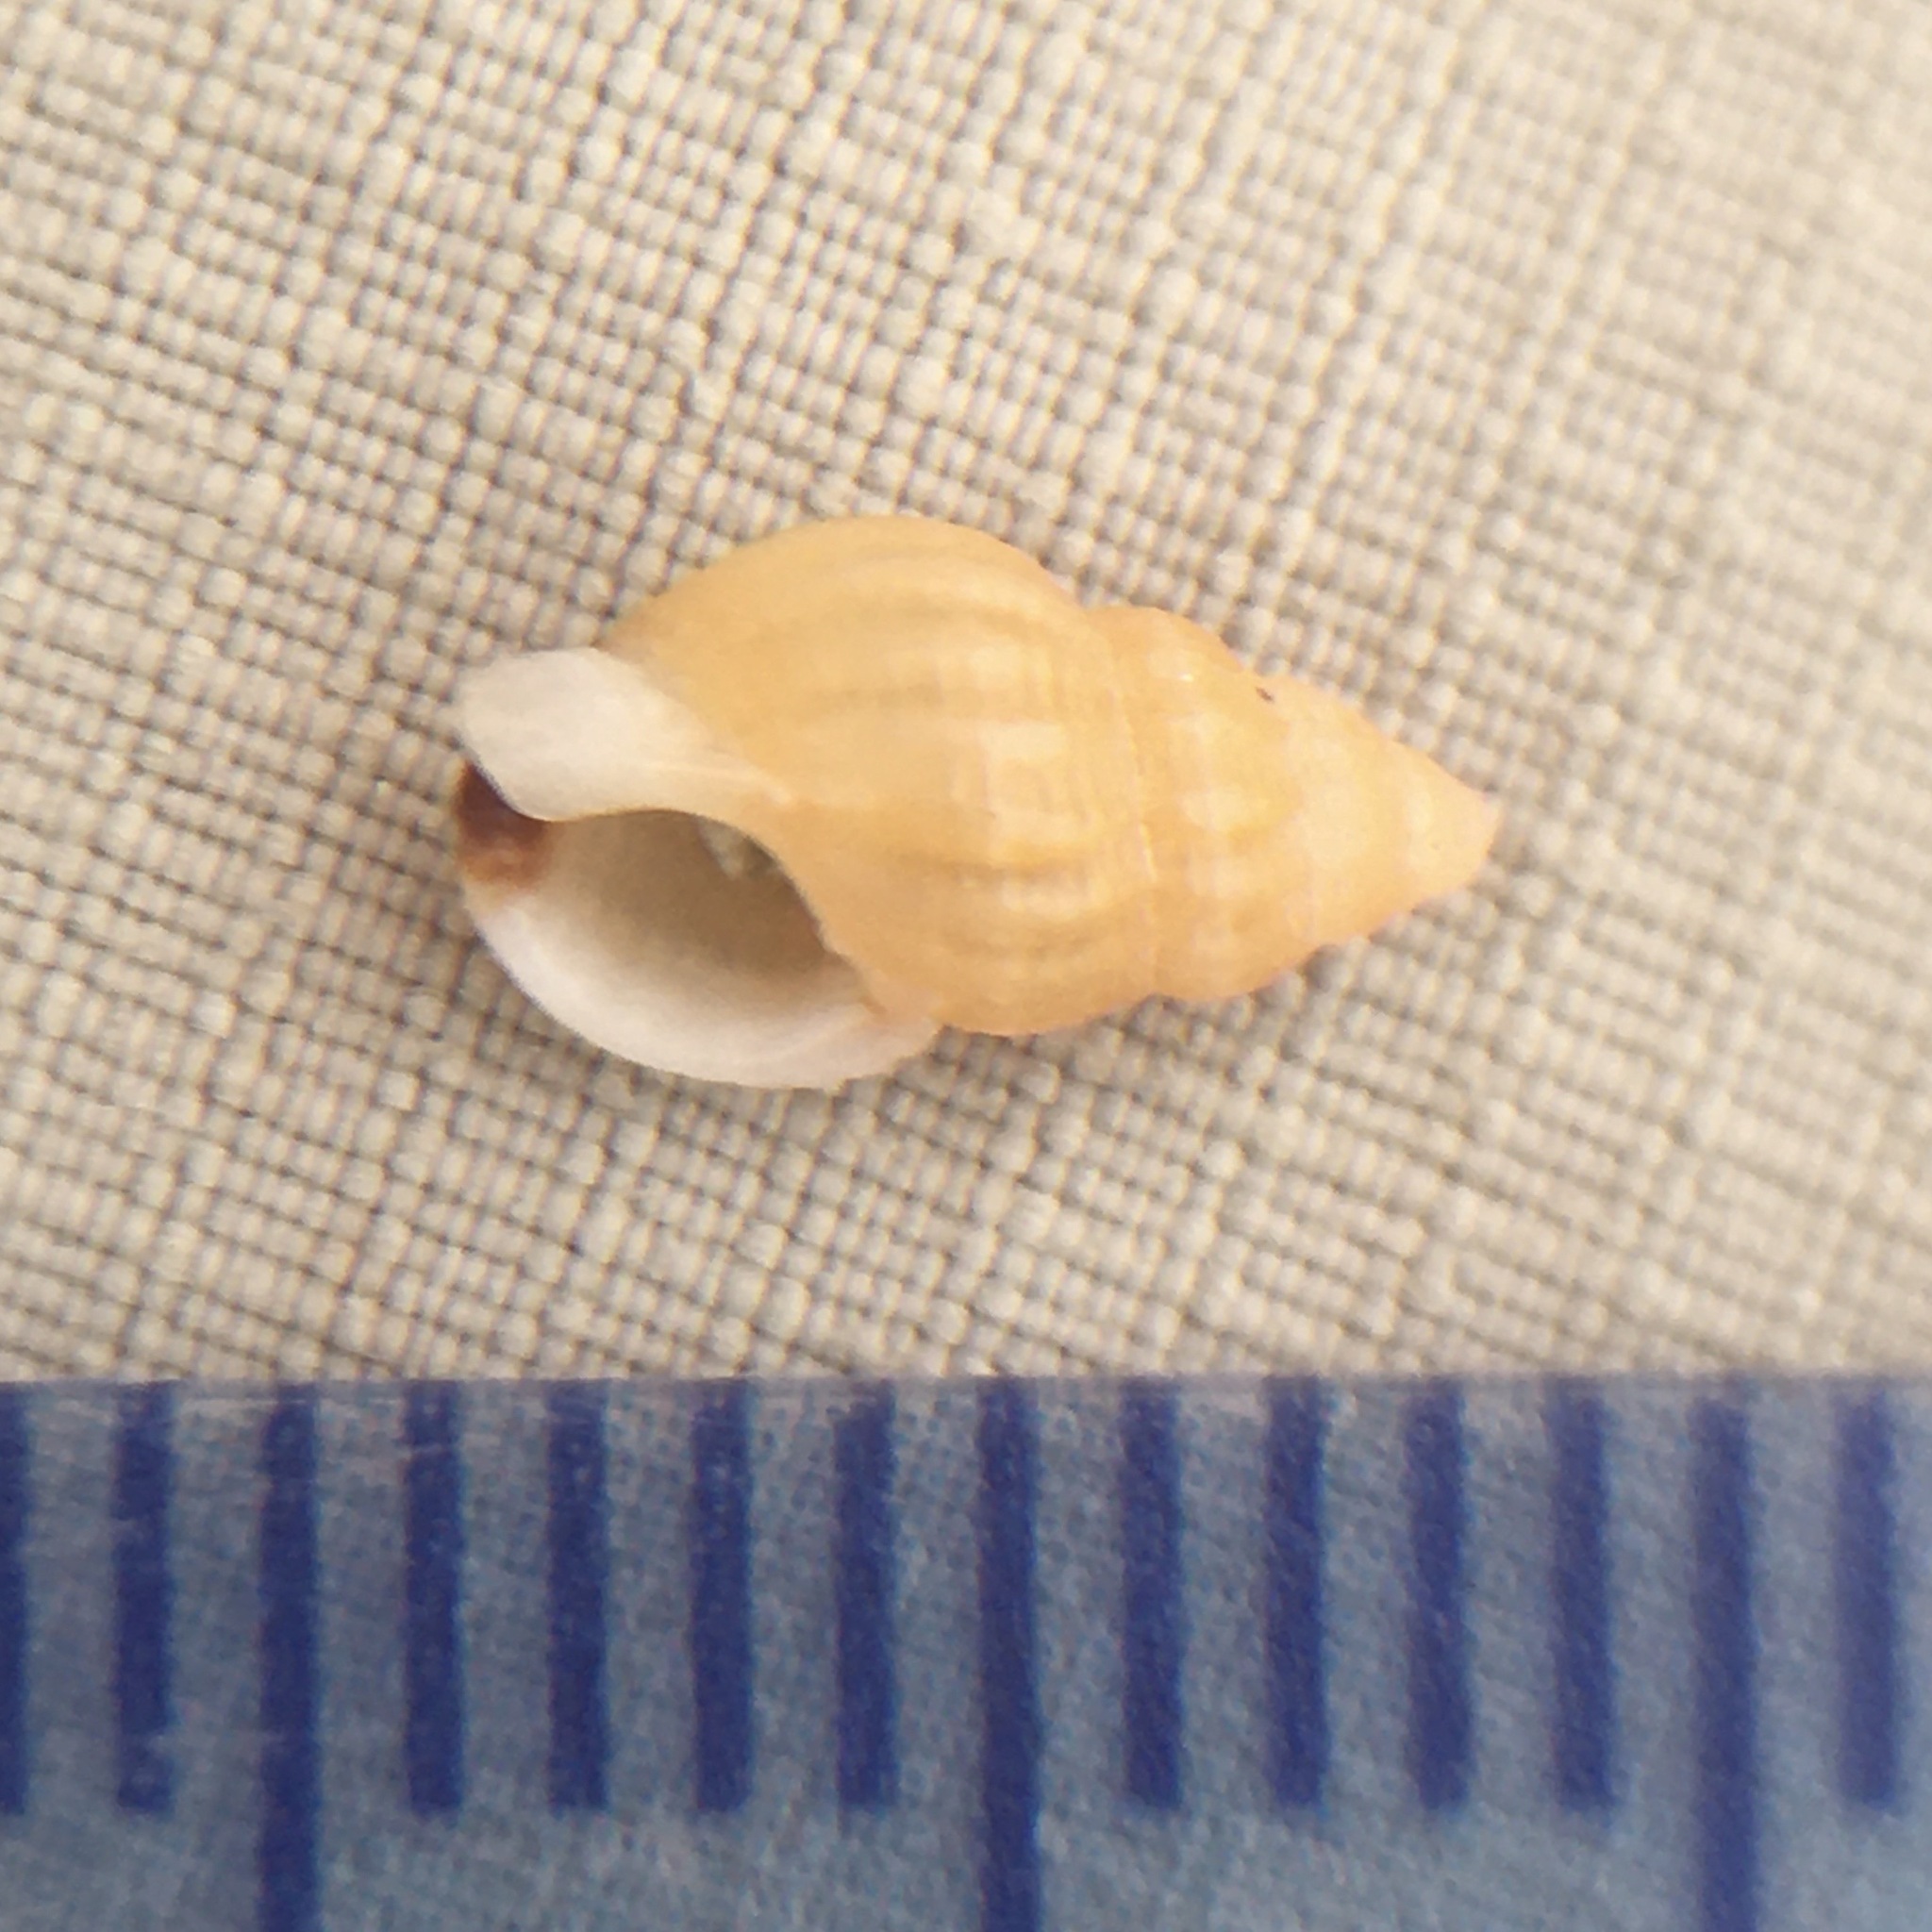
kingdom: Animalia
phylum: Mollusca
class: Gastropoda
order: Neogastropoda
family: Nassariidae
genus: Tritia
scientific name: Tritia incrassata
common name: Thick-lipped dog whelk
